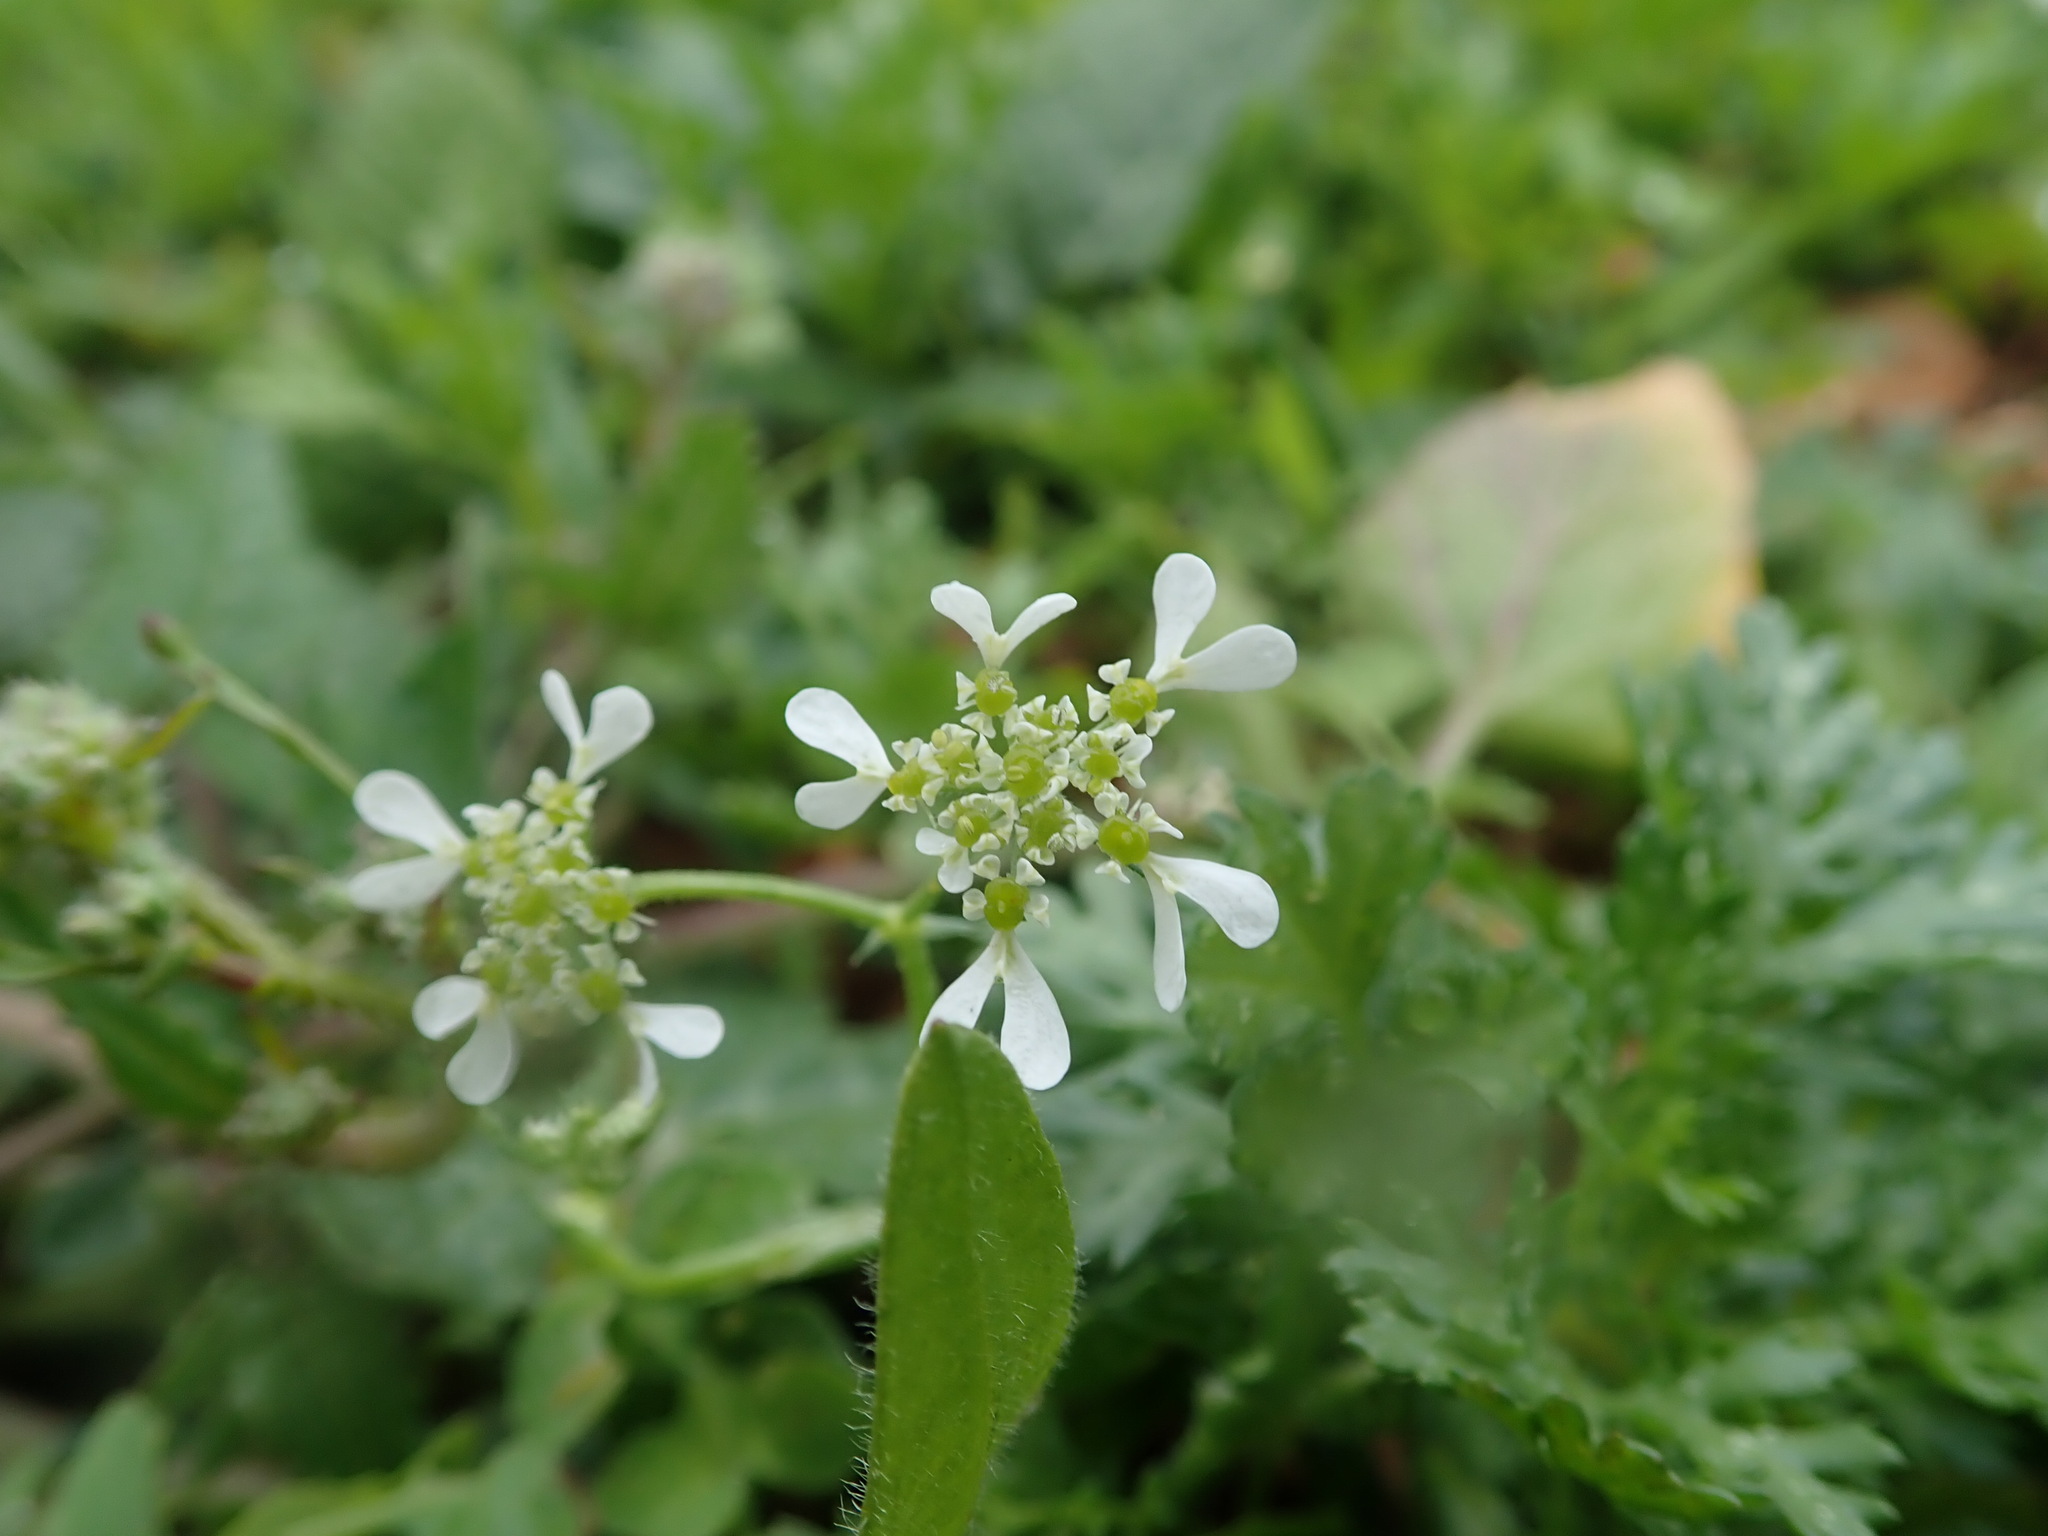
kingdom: Plantae
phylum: Tracheophyta
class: Magnoliopsida
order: Apiales
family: Apiaceae
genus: Tordylium
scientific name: Tordylium apulum
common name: Mediterranean hartwort
